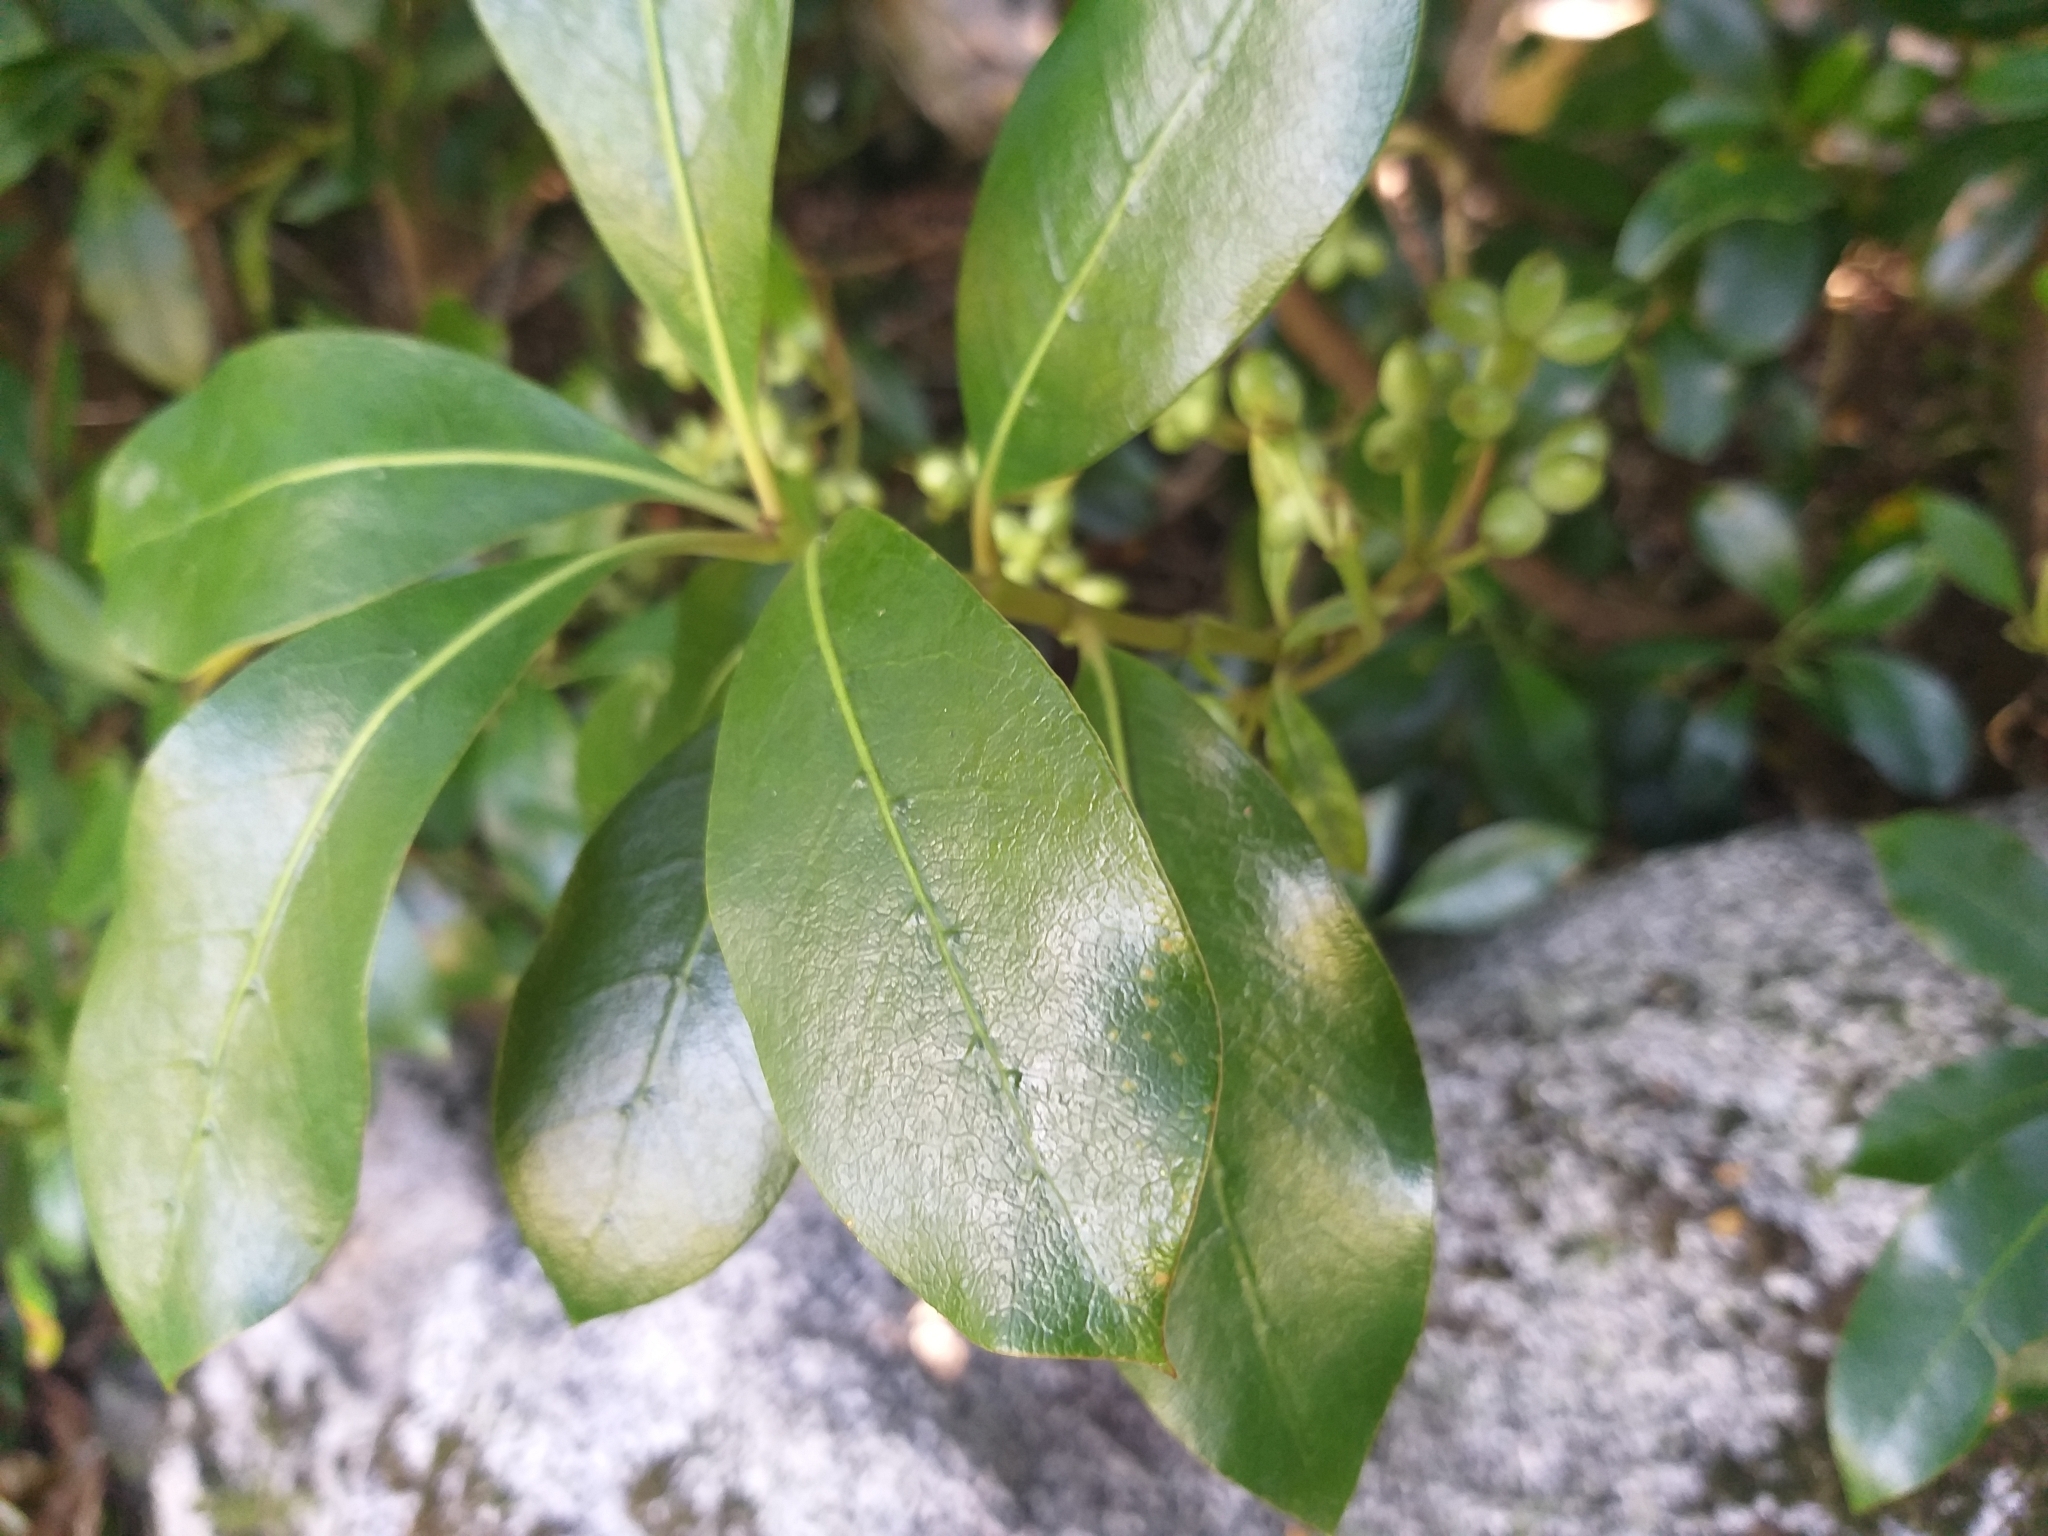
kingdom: Plantae
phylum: Tracheophyta
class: Magnoliopsida
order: Gentianales
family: Rubiaceae
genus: Coprosma
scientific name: Coprosma lucida
